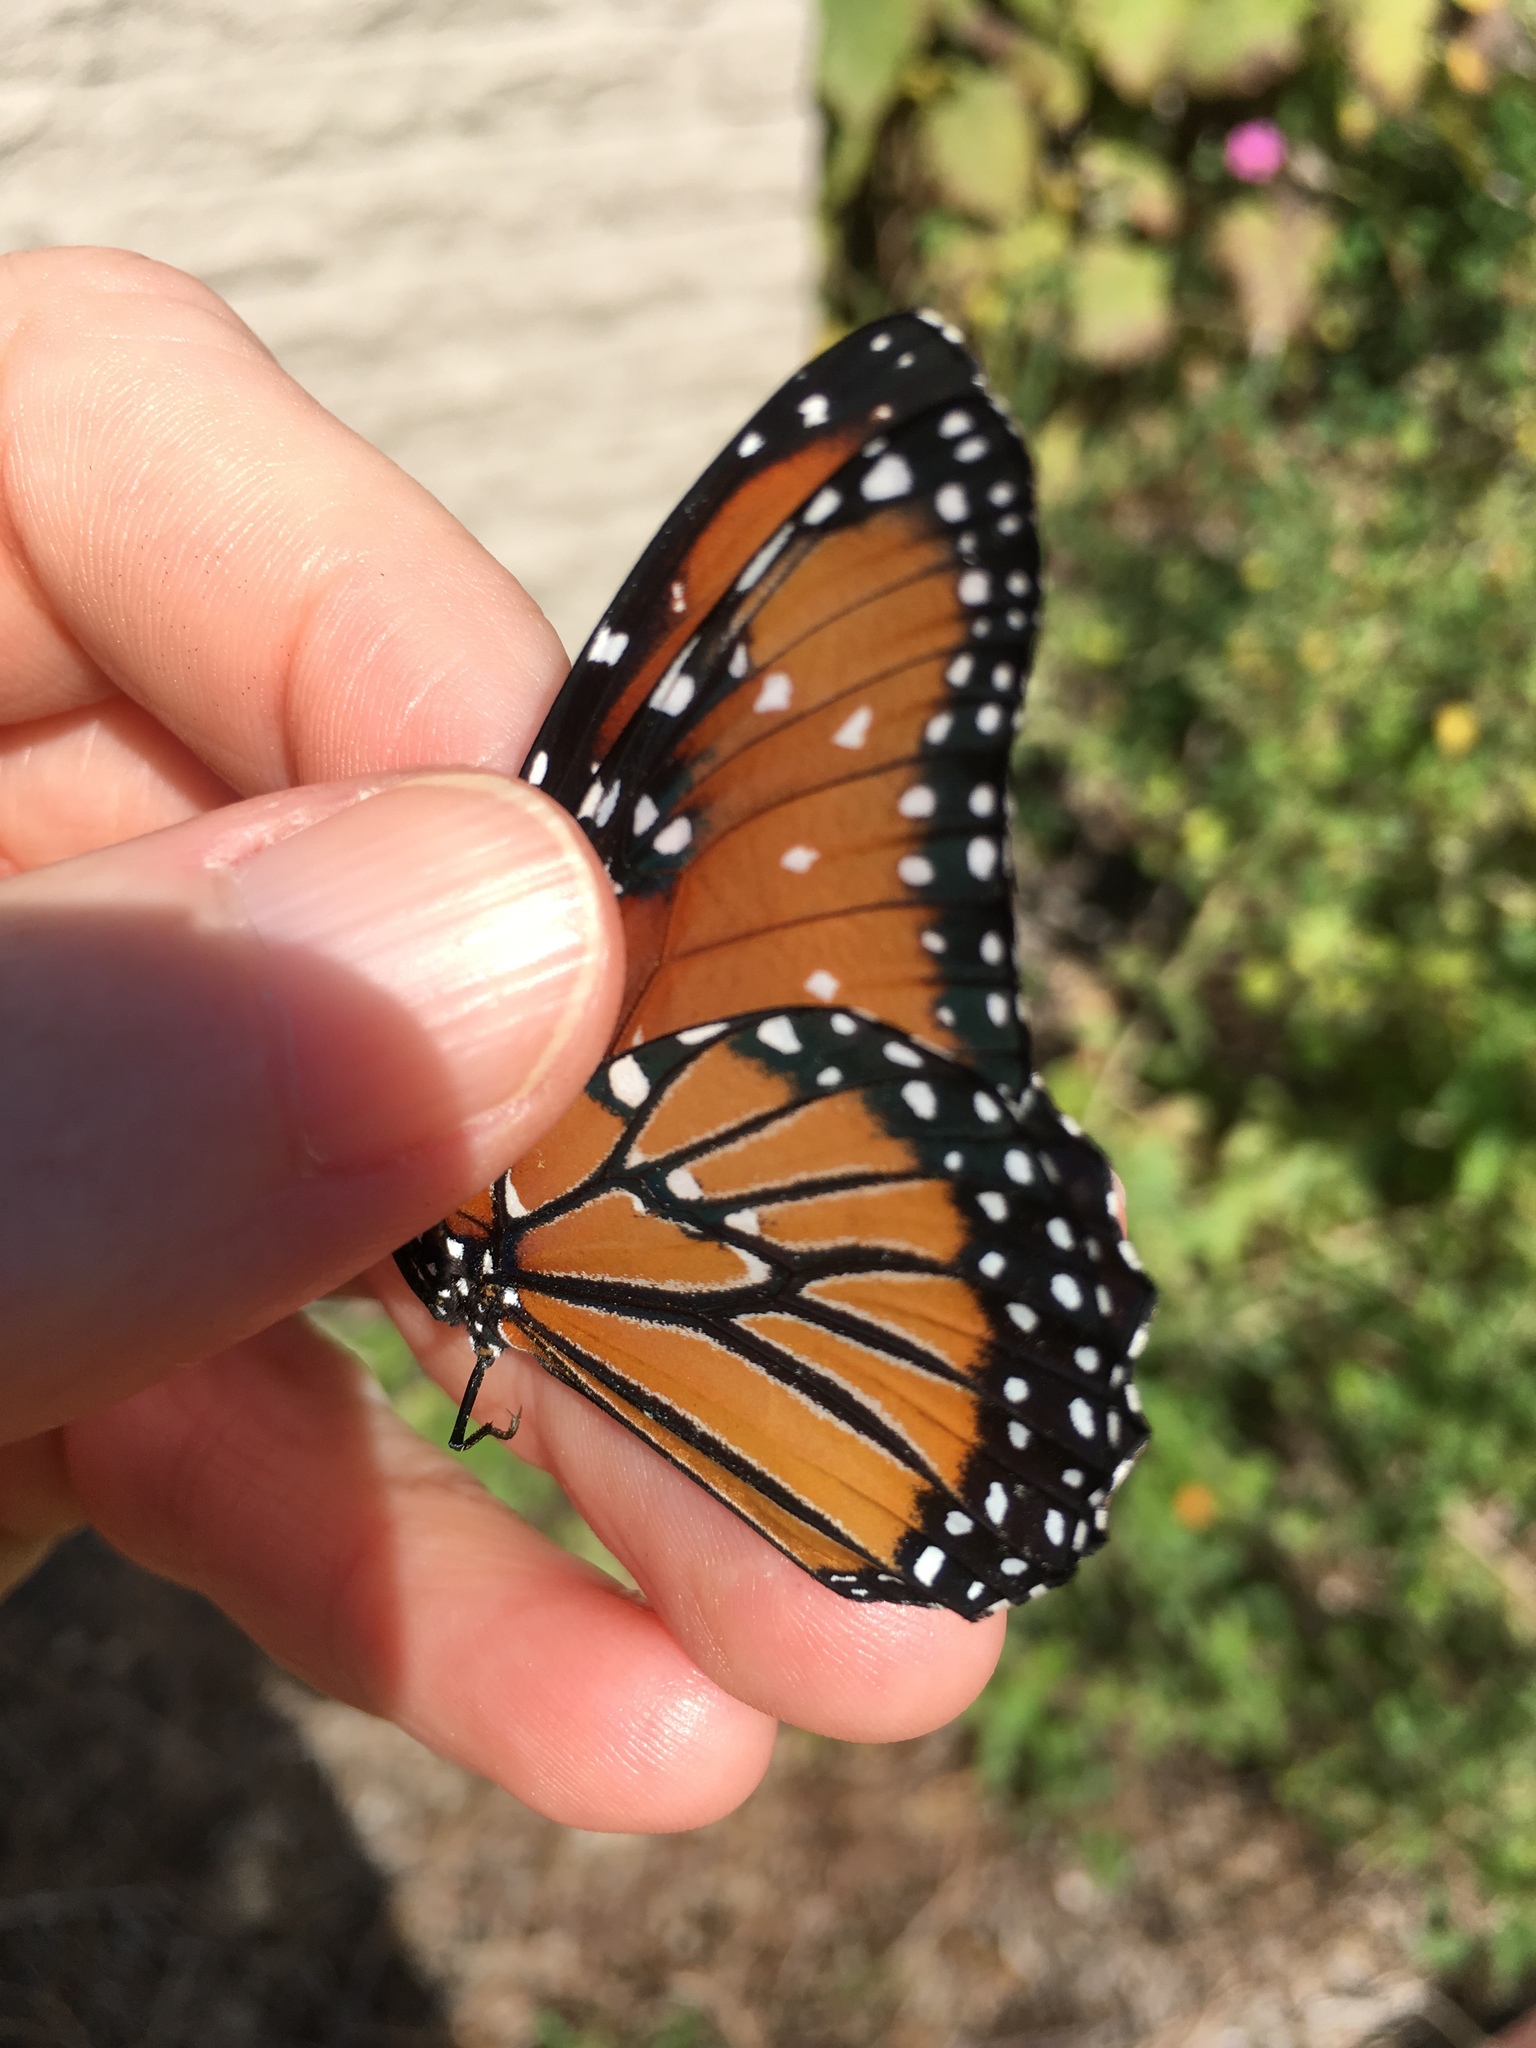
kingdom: Animalia
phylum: Arthropoda
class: Insecta
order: Lepidoptera
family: Nymphalidae
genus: Danaus
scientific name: Danaus gilippus
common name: Queen
